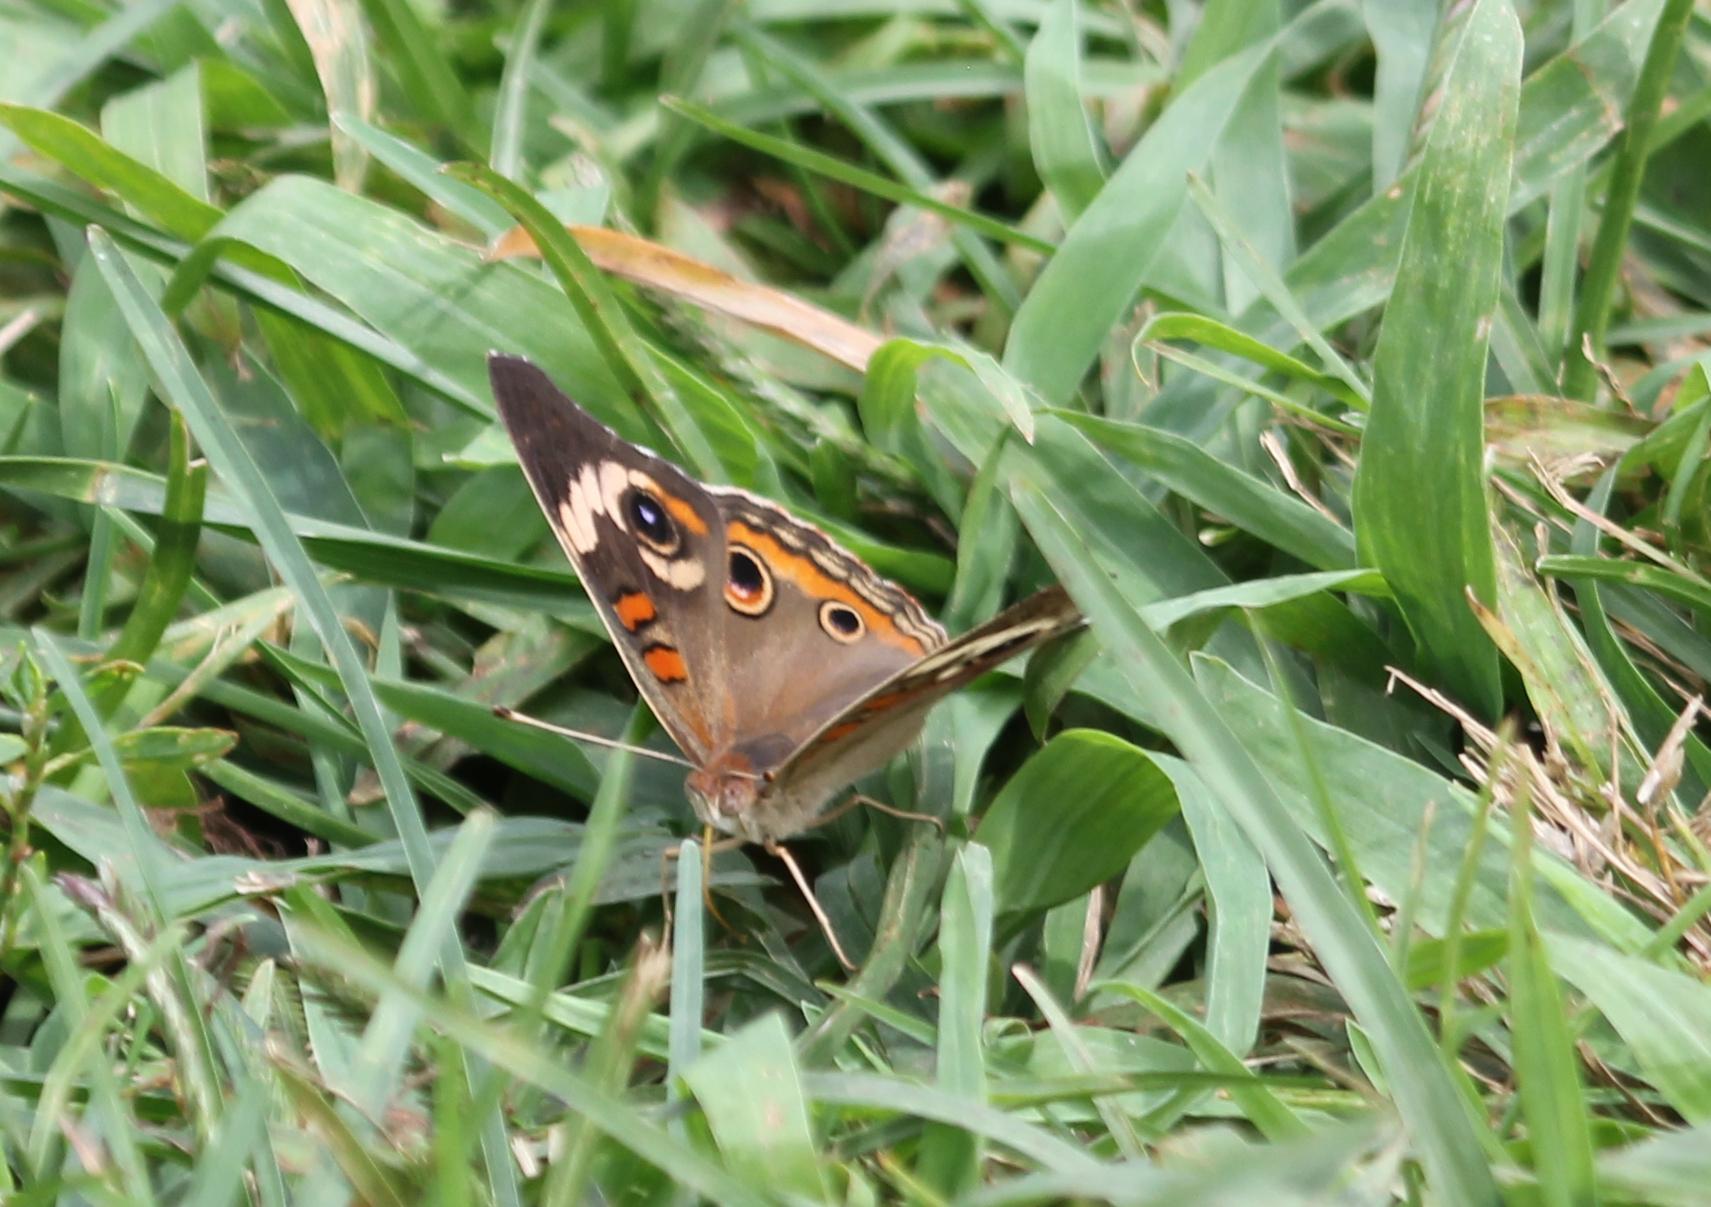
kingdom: Animalia
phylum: Arthropoda
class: Insecta
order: Lepidoptera
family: Nymphalidae
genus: Junonia
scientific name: Junonia coenia
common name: Common buckeye
